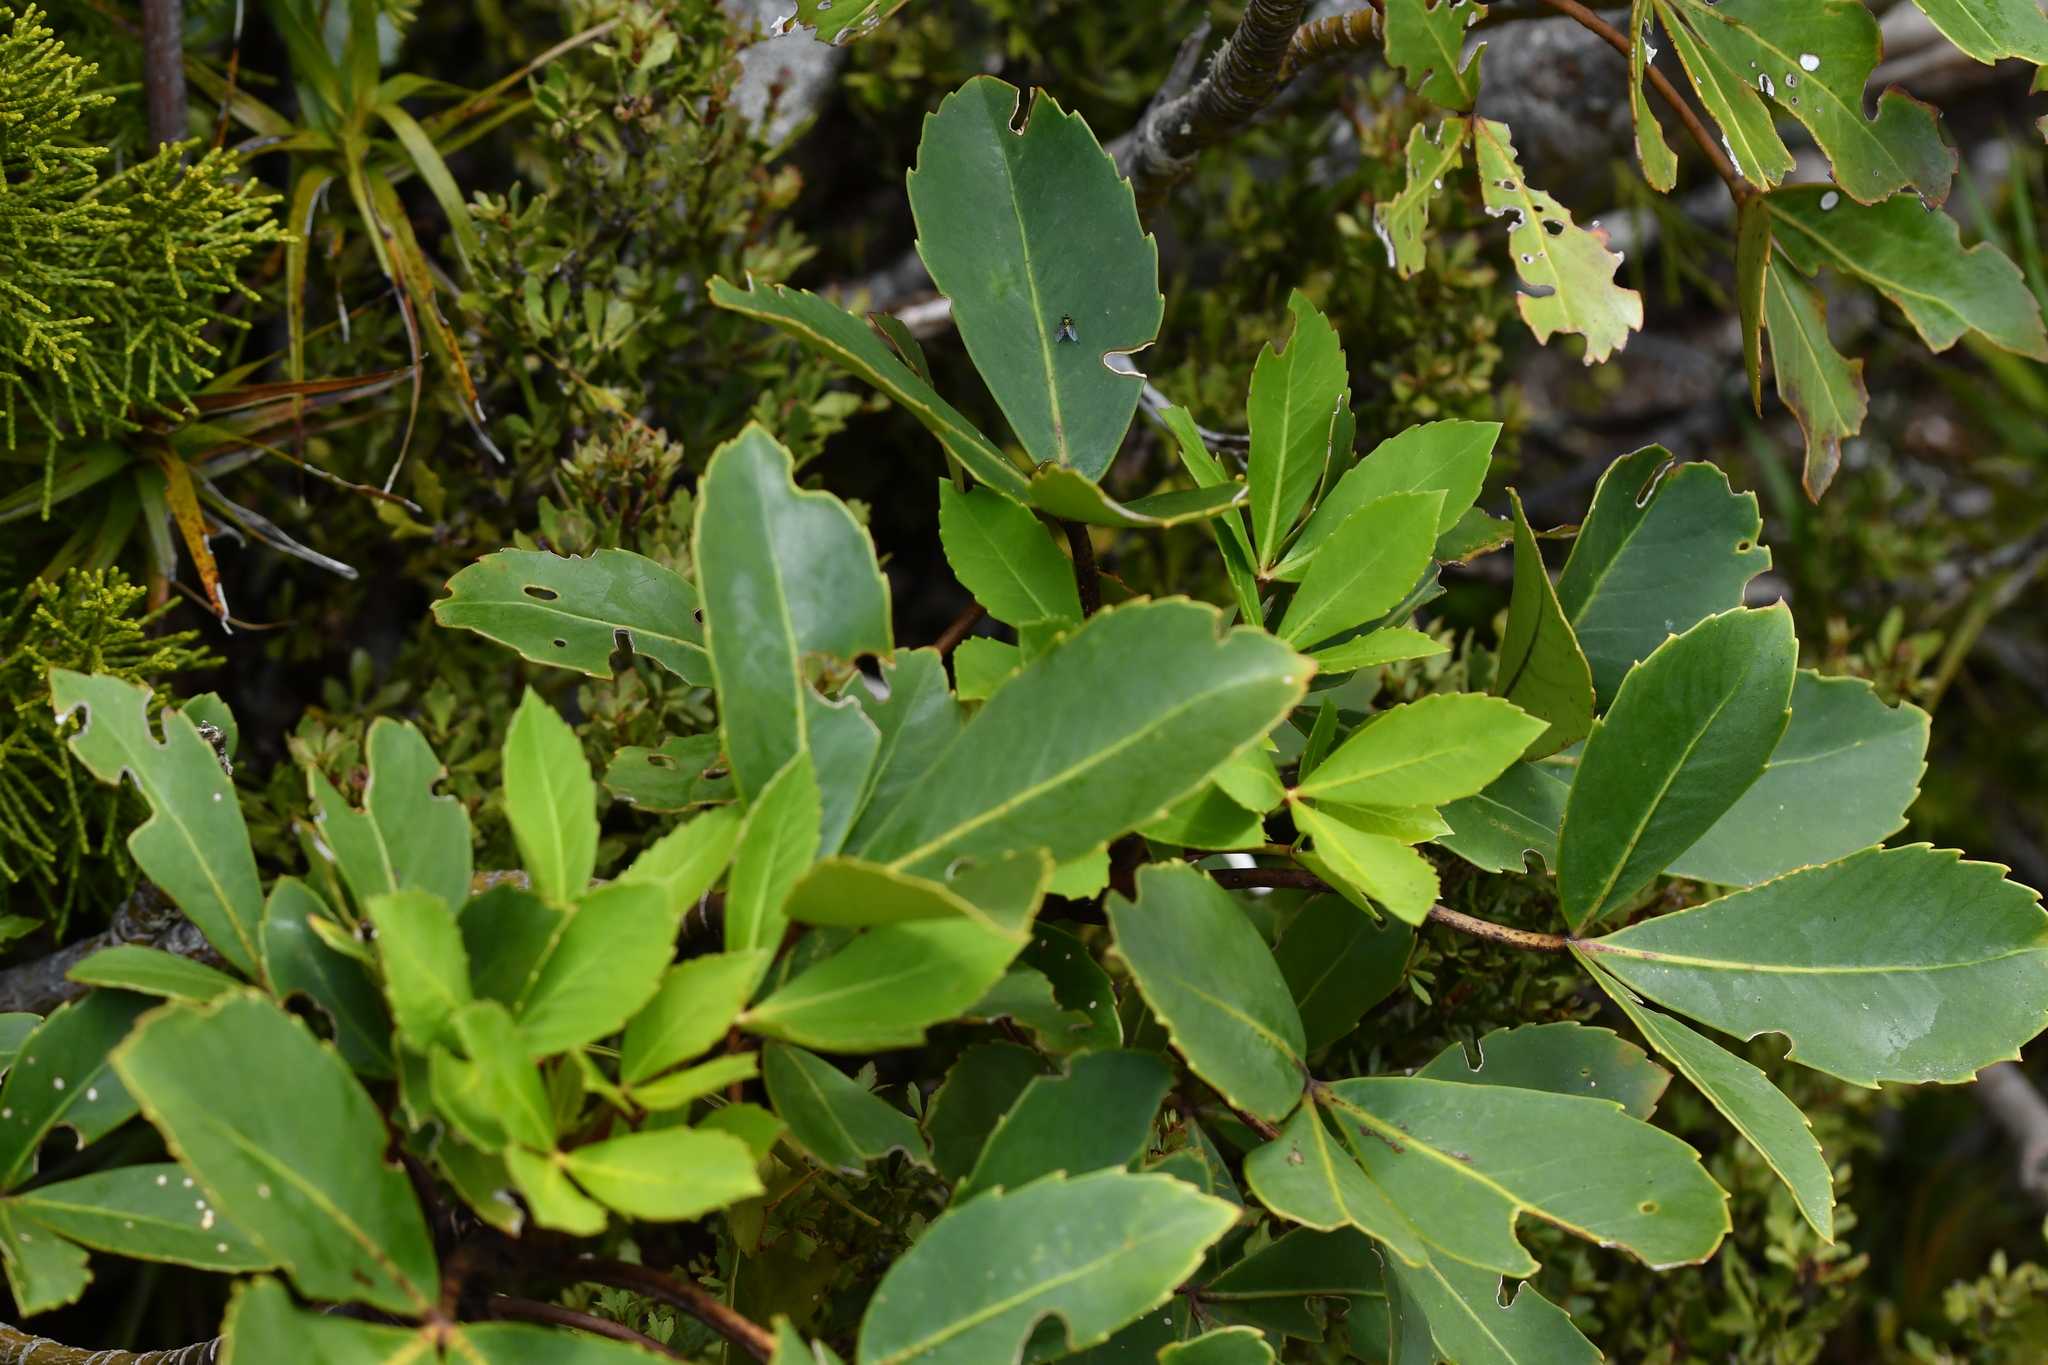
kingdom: Plantae
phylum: Tracheophyta
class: Magnoliopsida
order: Apiales
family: Araliaceae
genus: Neopanax
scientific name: Neopanax colensoi
